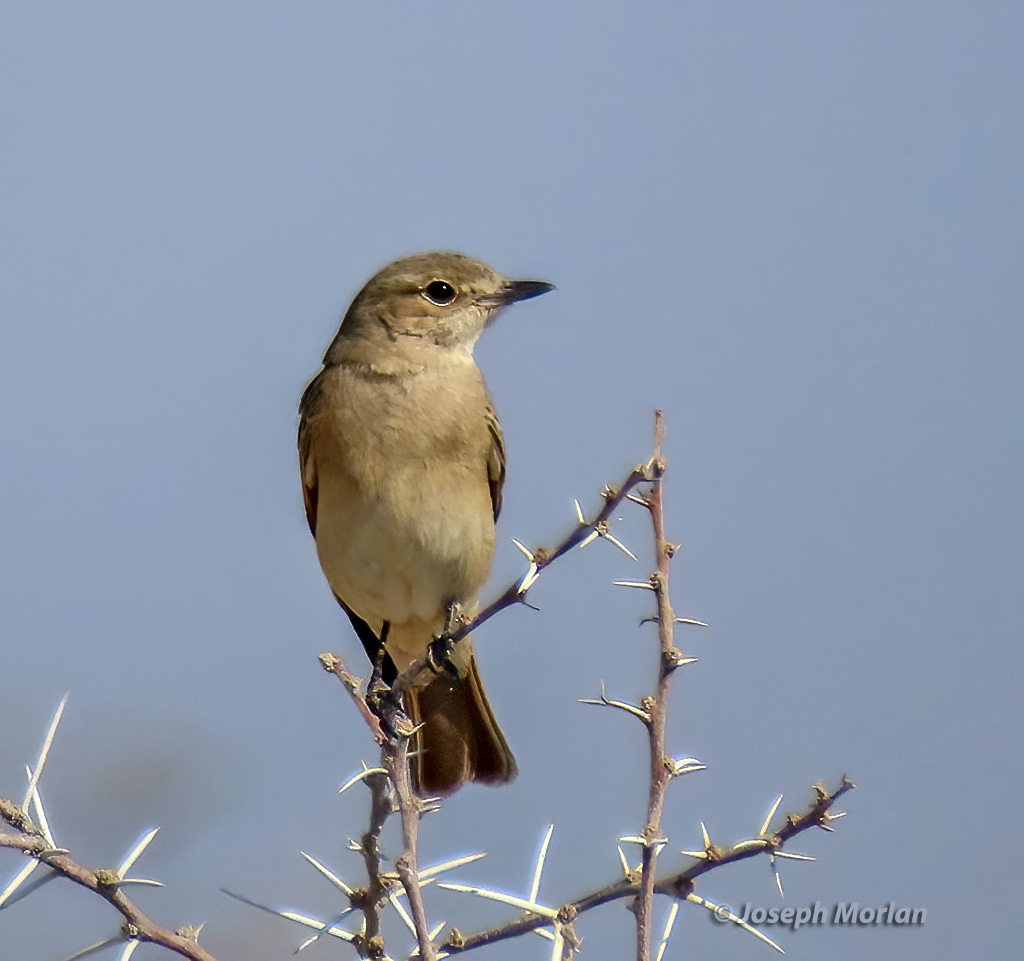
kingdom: Animalia
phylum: Chordata
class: Aves
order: Passeriformes
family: Muscicapidae
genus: Bradornis
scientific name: Bradornis infuscatus
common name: Chat flycatcher
